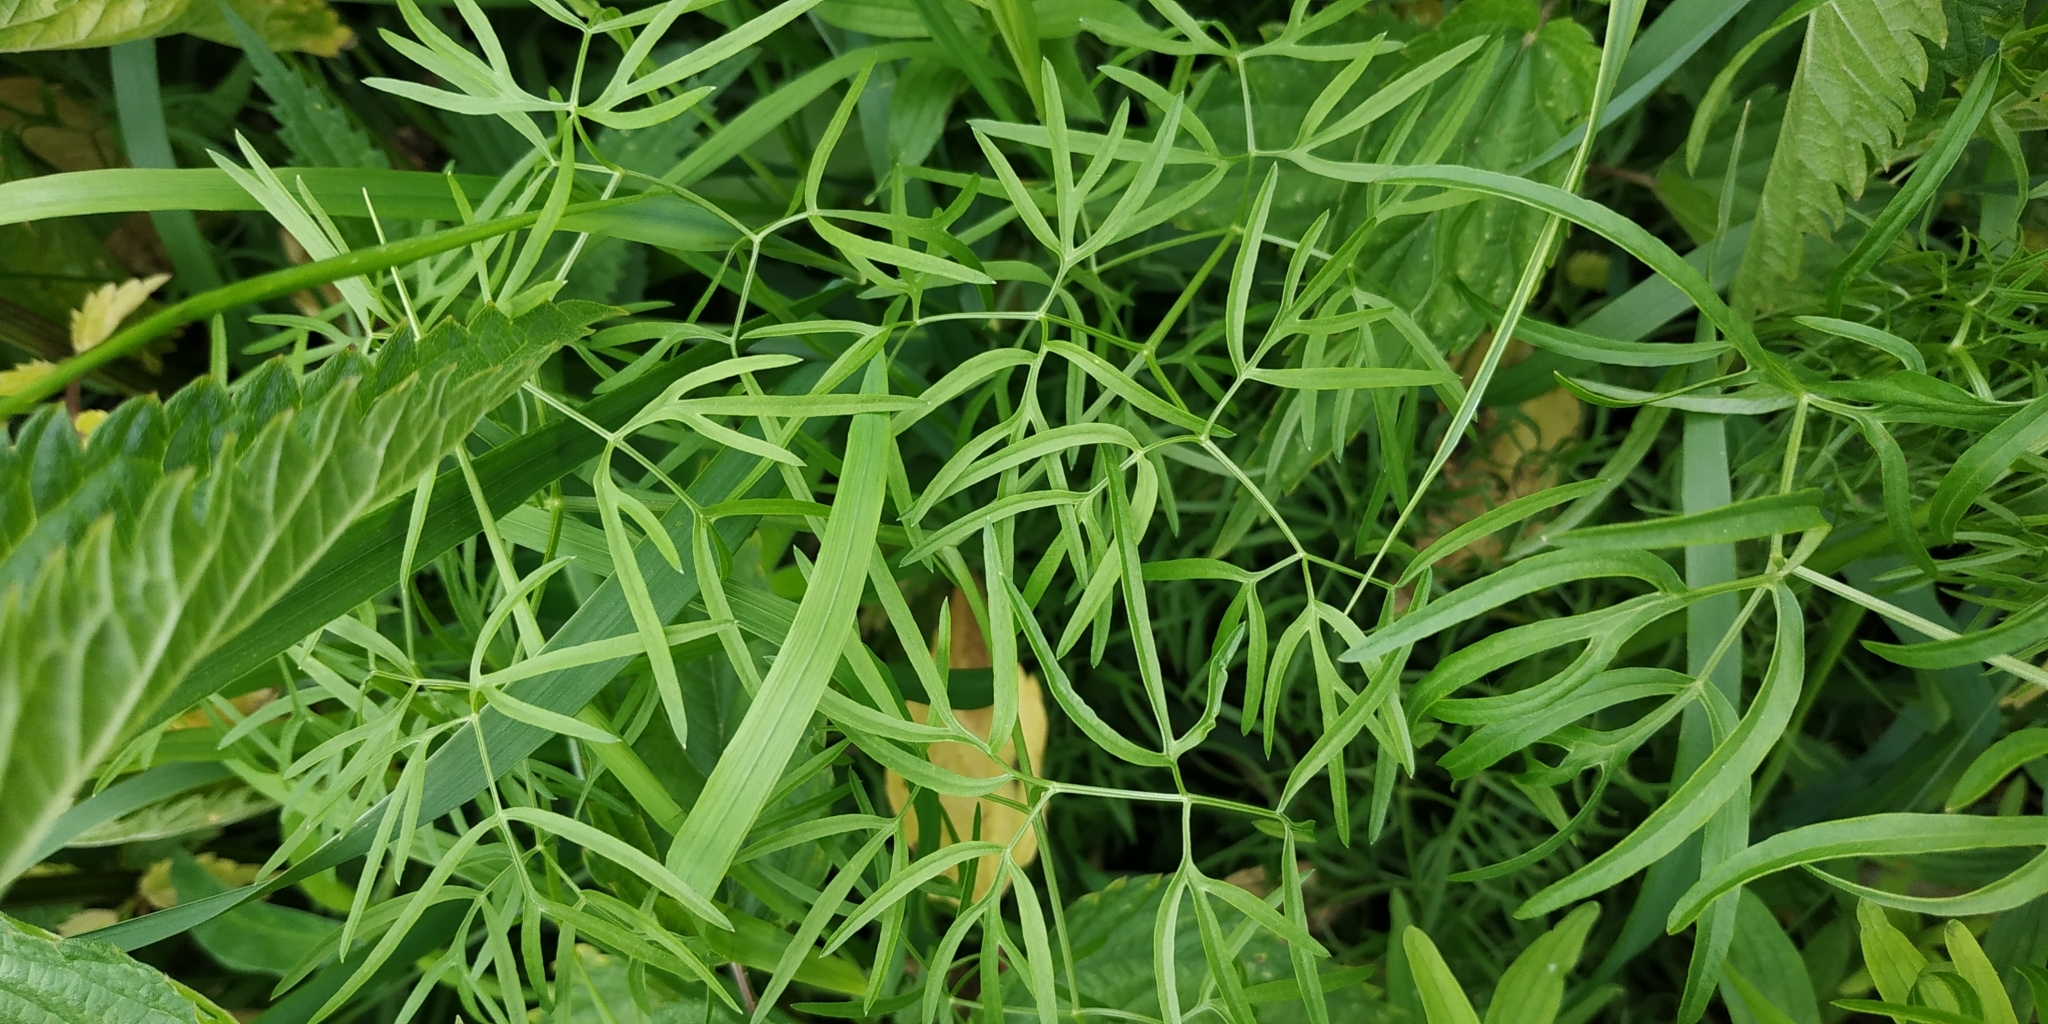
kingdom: Plantae
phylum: Tracheophyta
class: Magnoliopsida
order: Apiales
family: Apiaceae
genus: Cenolophium
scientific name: Cenolophium fischeri
